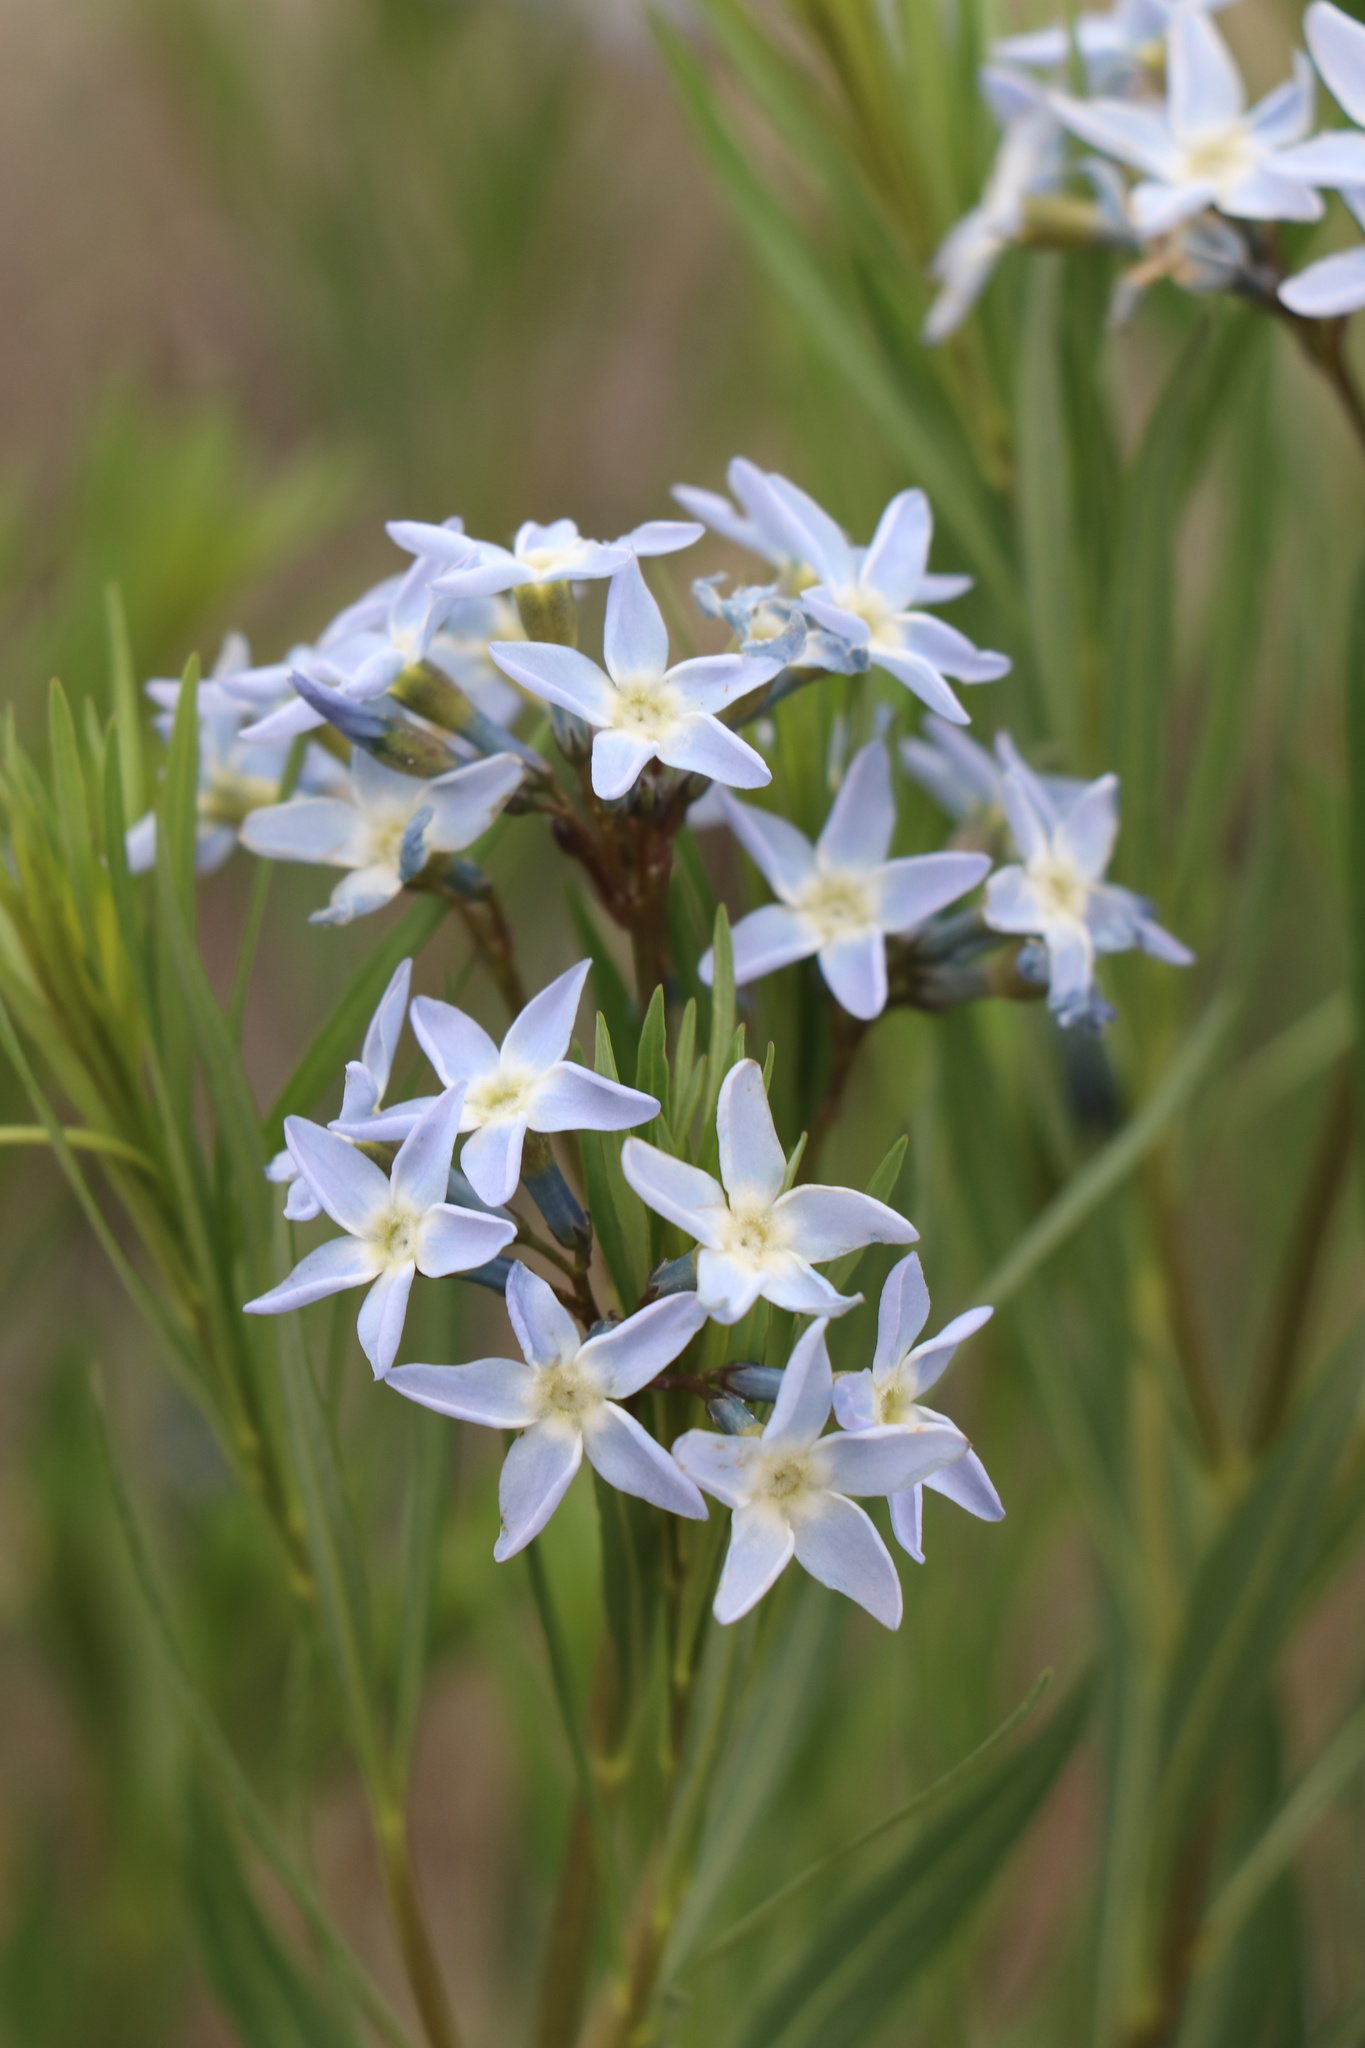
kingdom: Plantae
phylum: Tracheophyta
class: Magnoliopsida
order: Gentianales
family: Apocynaceae
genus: Amsonia
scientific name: Amsonia ciliata
